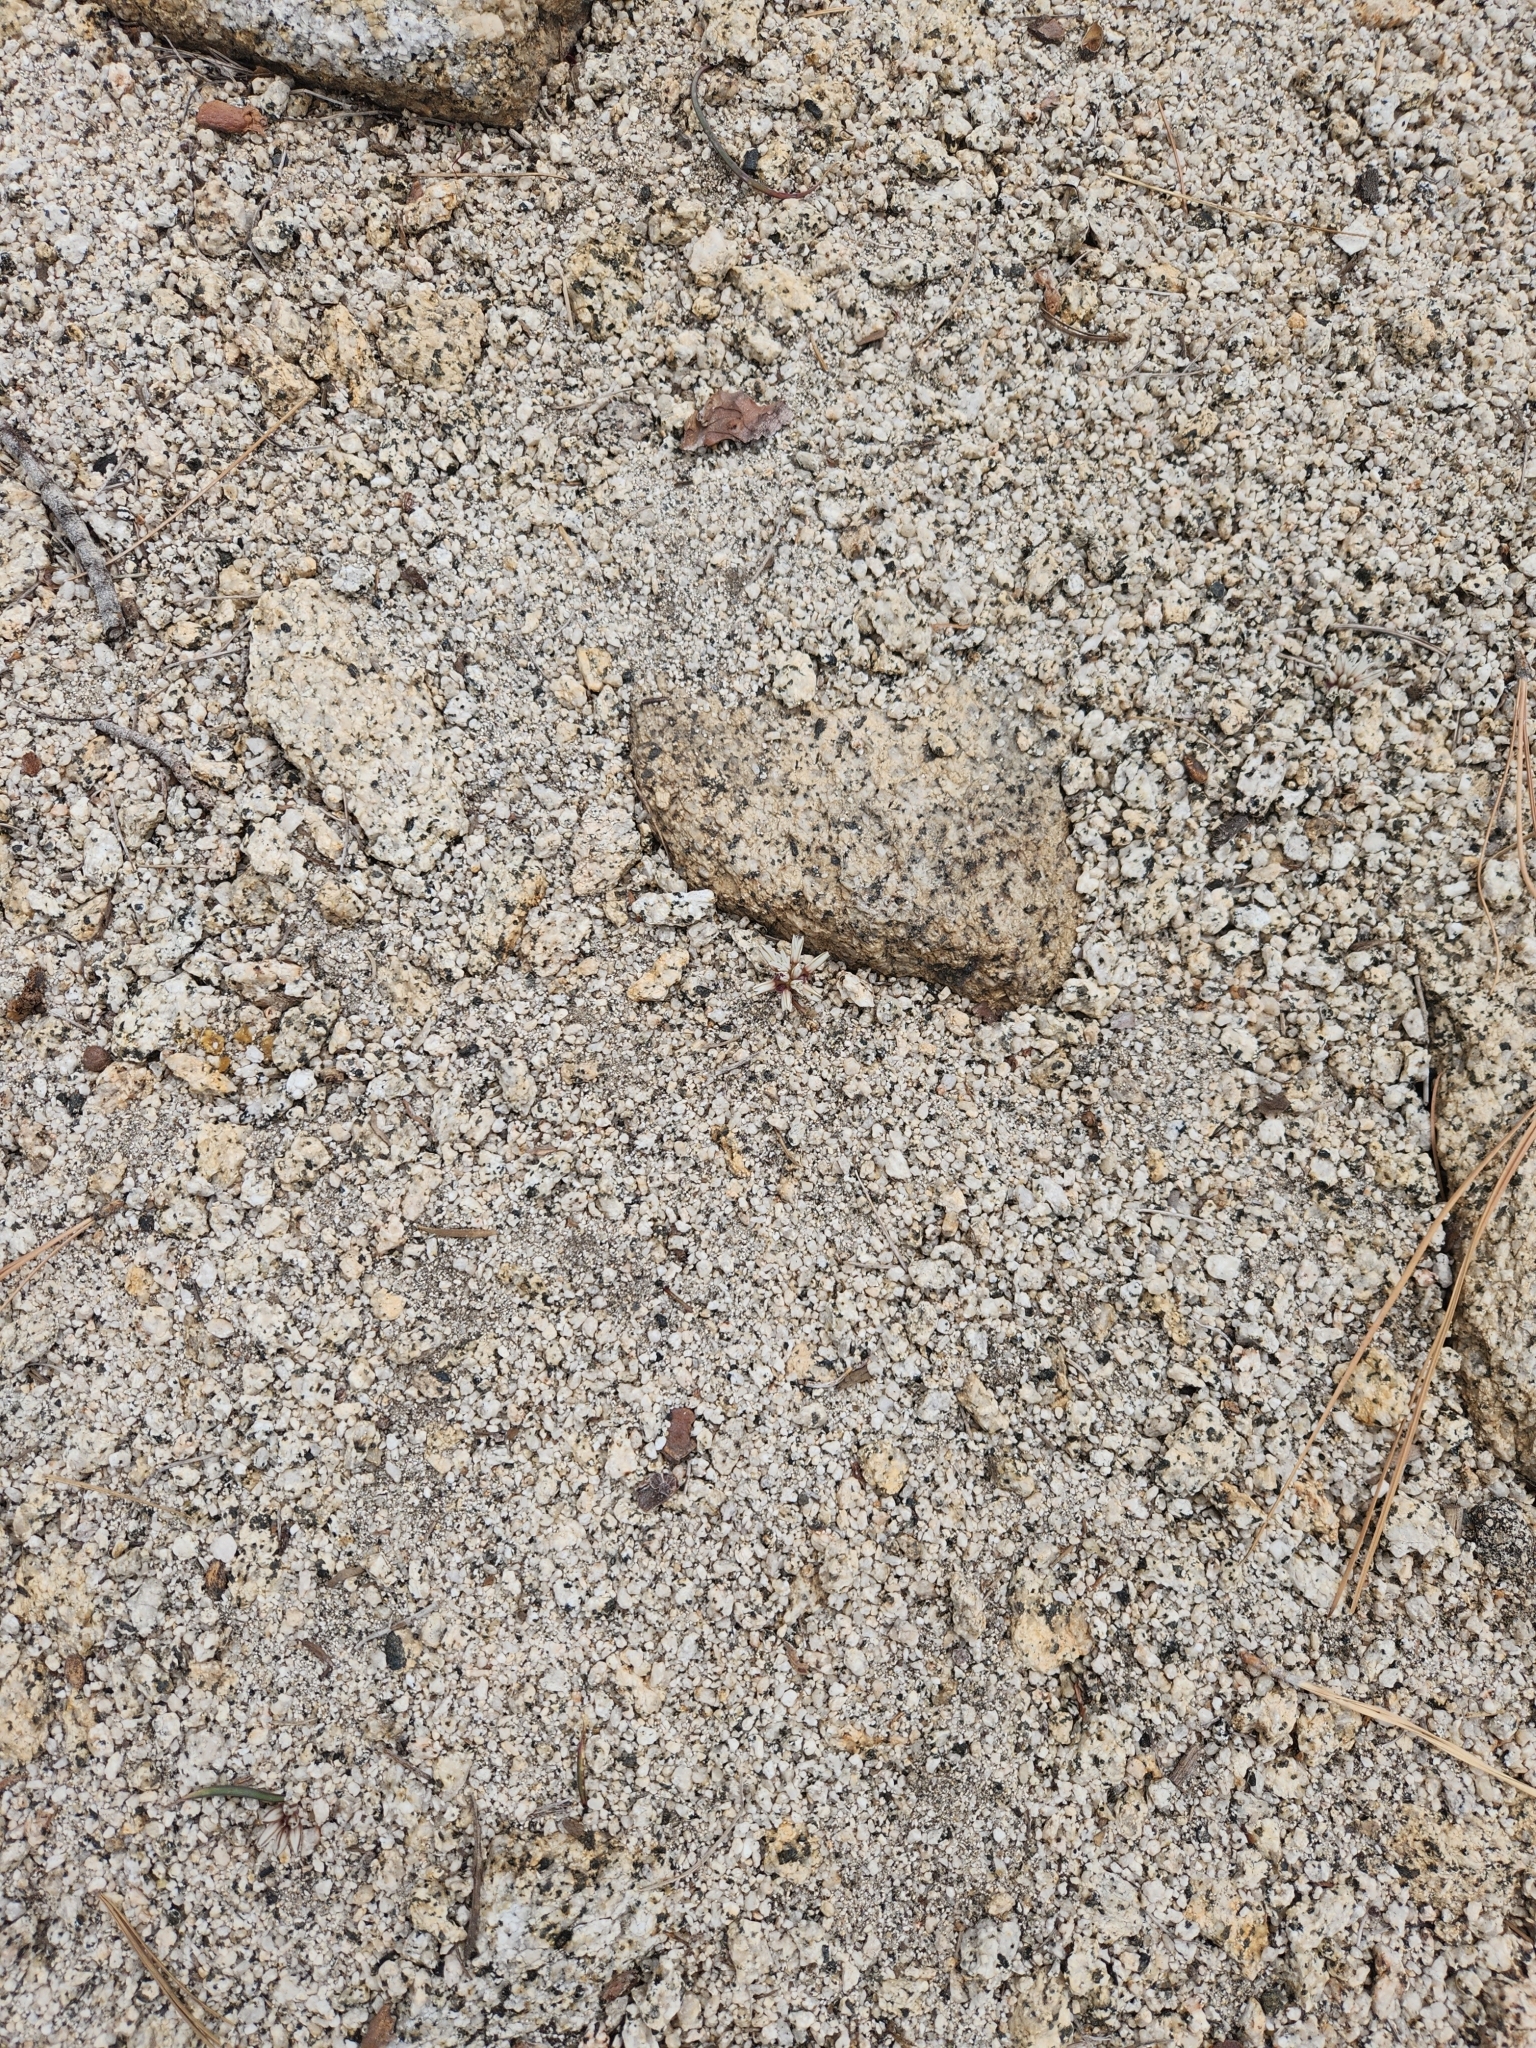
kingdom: Plantae
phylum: Tracheophyta
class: Liliopsida
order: Asparagales
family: Amaryllidaceae
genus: Allium
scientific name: Allium burlewii
